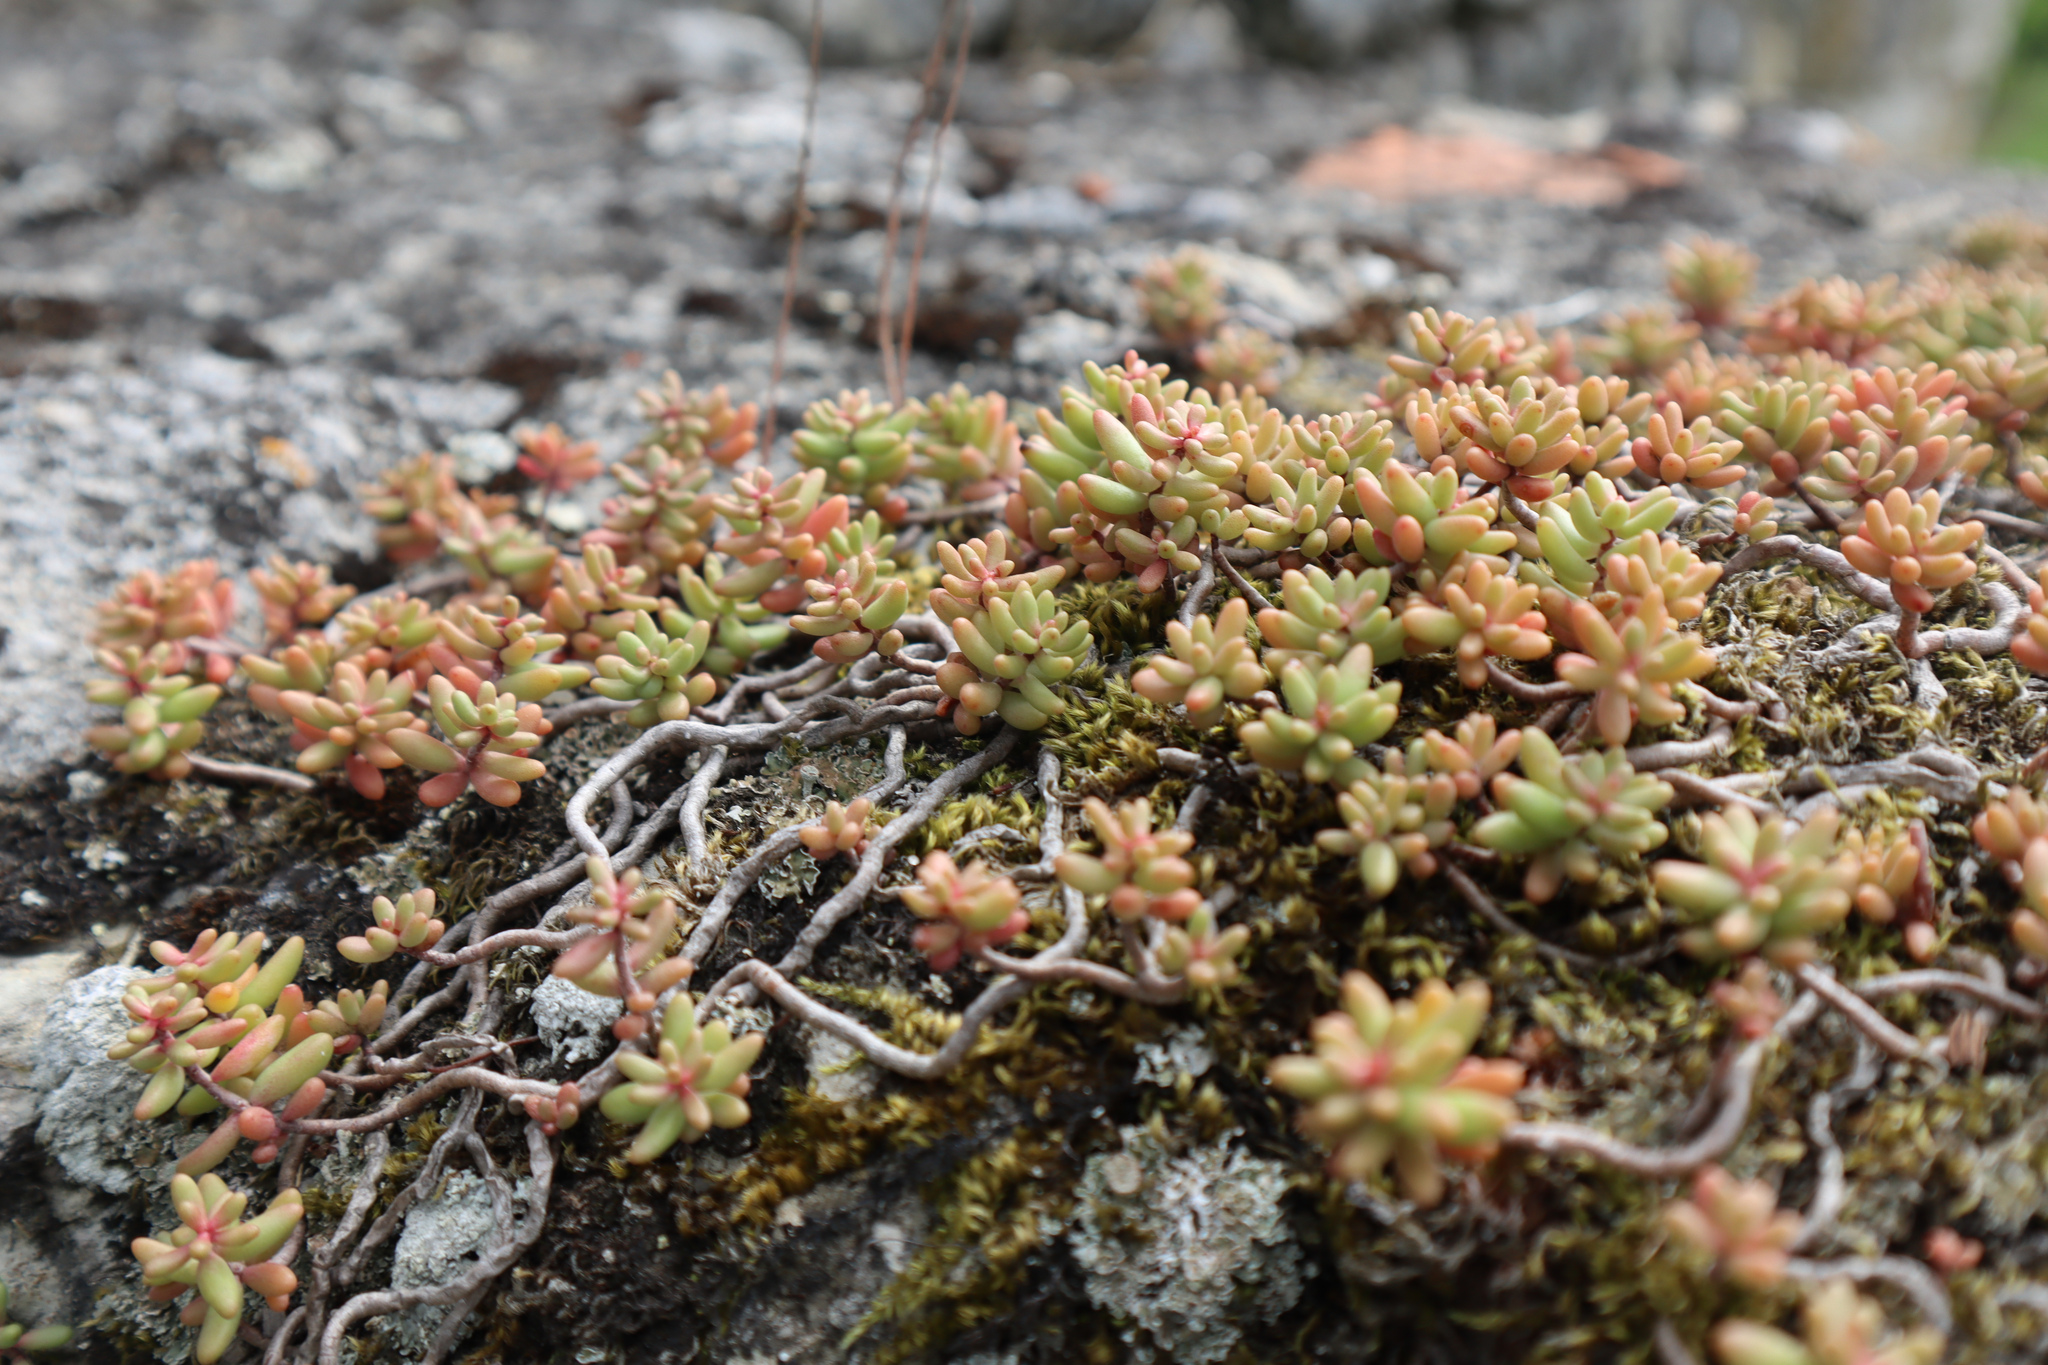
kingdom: Plantae
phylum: Tracheophyta
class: Magnoliopsida
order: Saxifragales
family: Crassulaceae
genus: Sedum
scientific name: Sedum album
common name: White stonecrop
